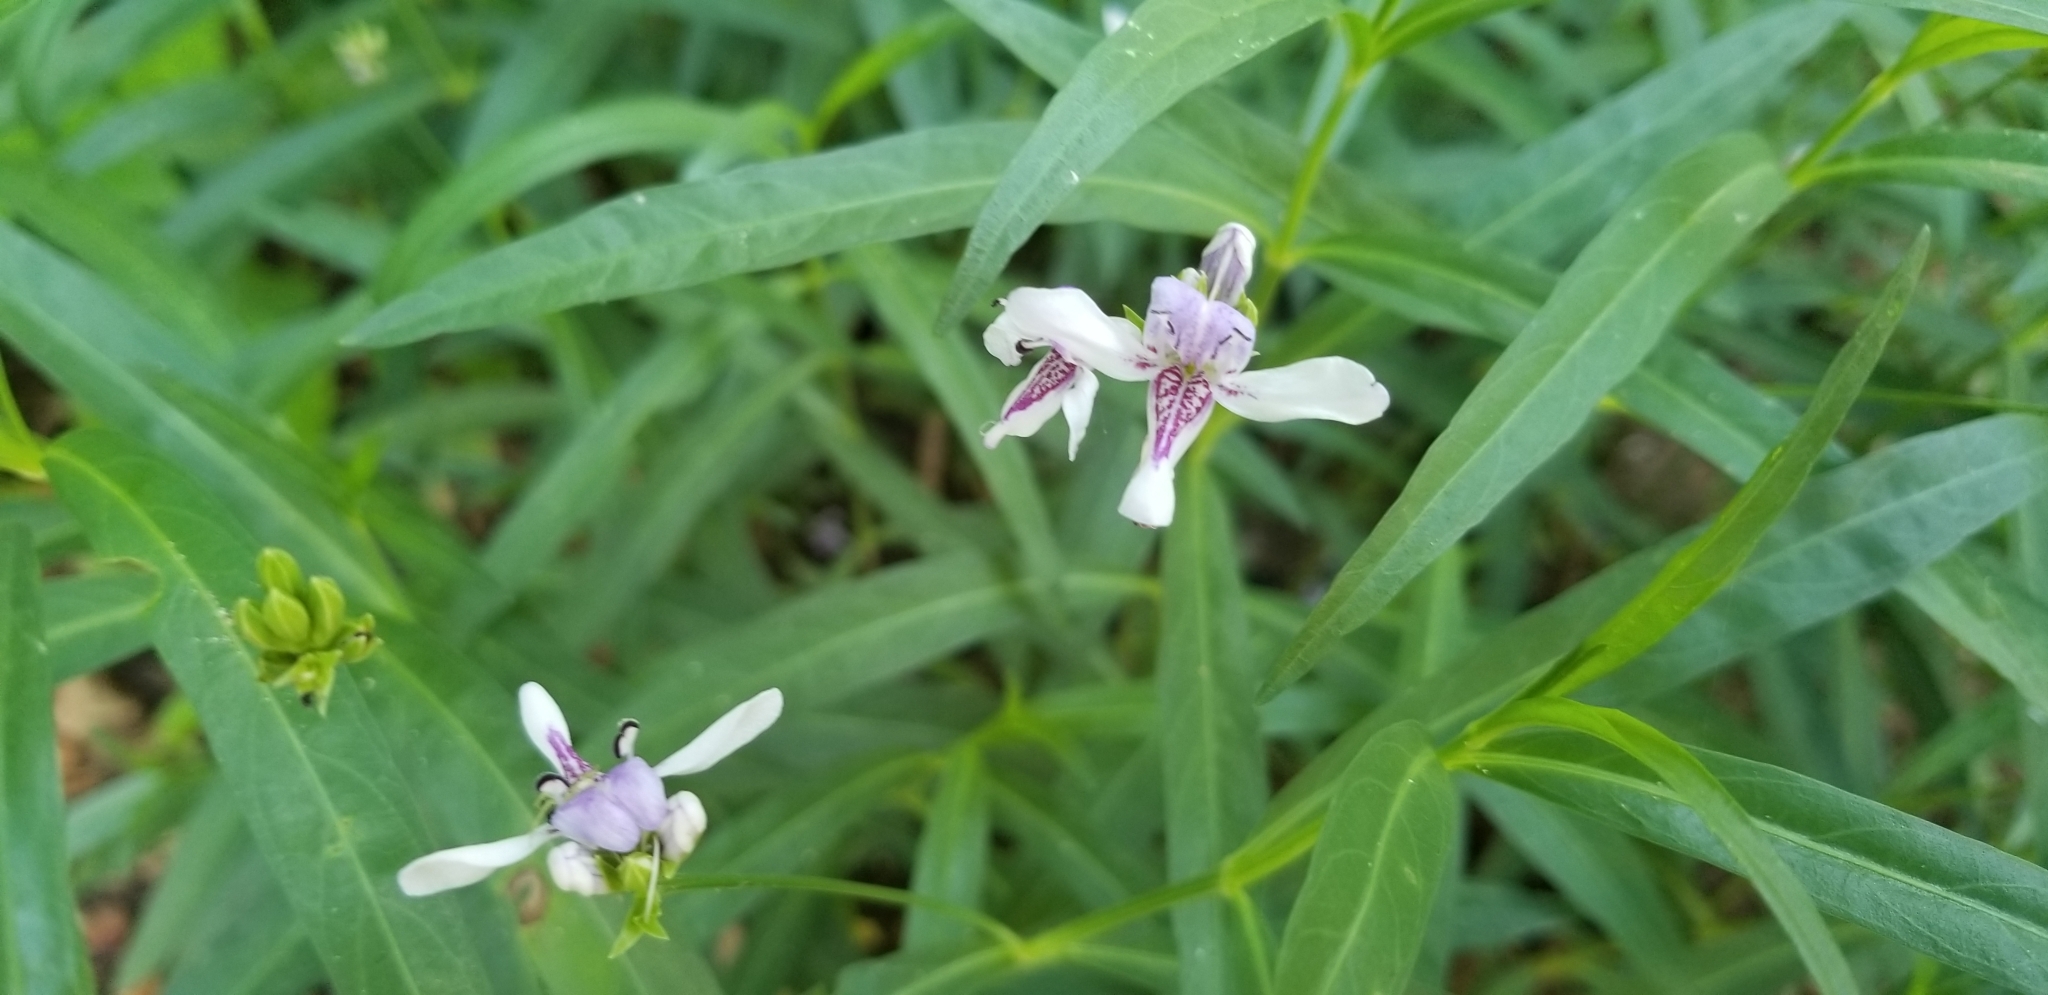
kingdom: Plantae
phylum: Tracheophyta
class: Magnoliopsida
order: Lamiales
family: Acanthaceae
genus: Dianthera
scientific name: Dianthera americana
